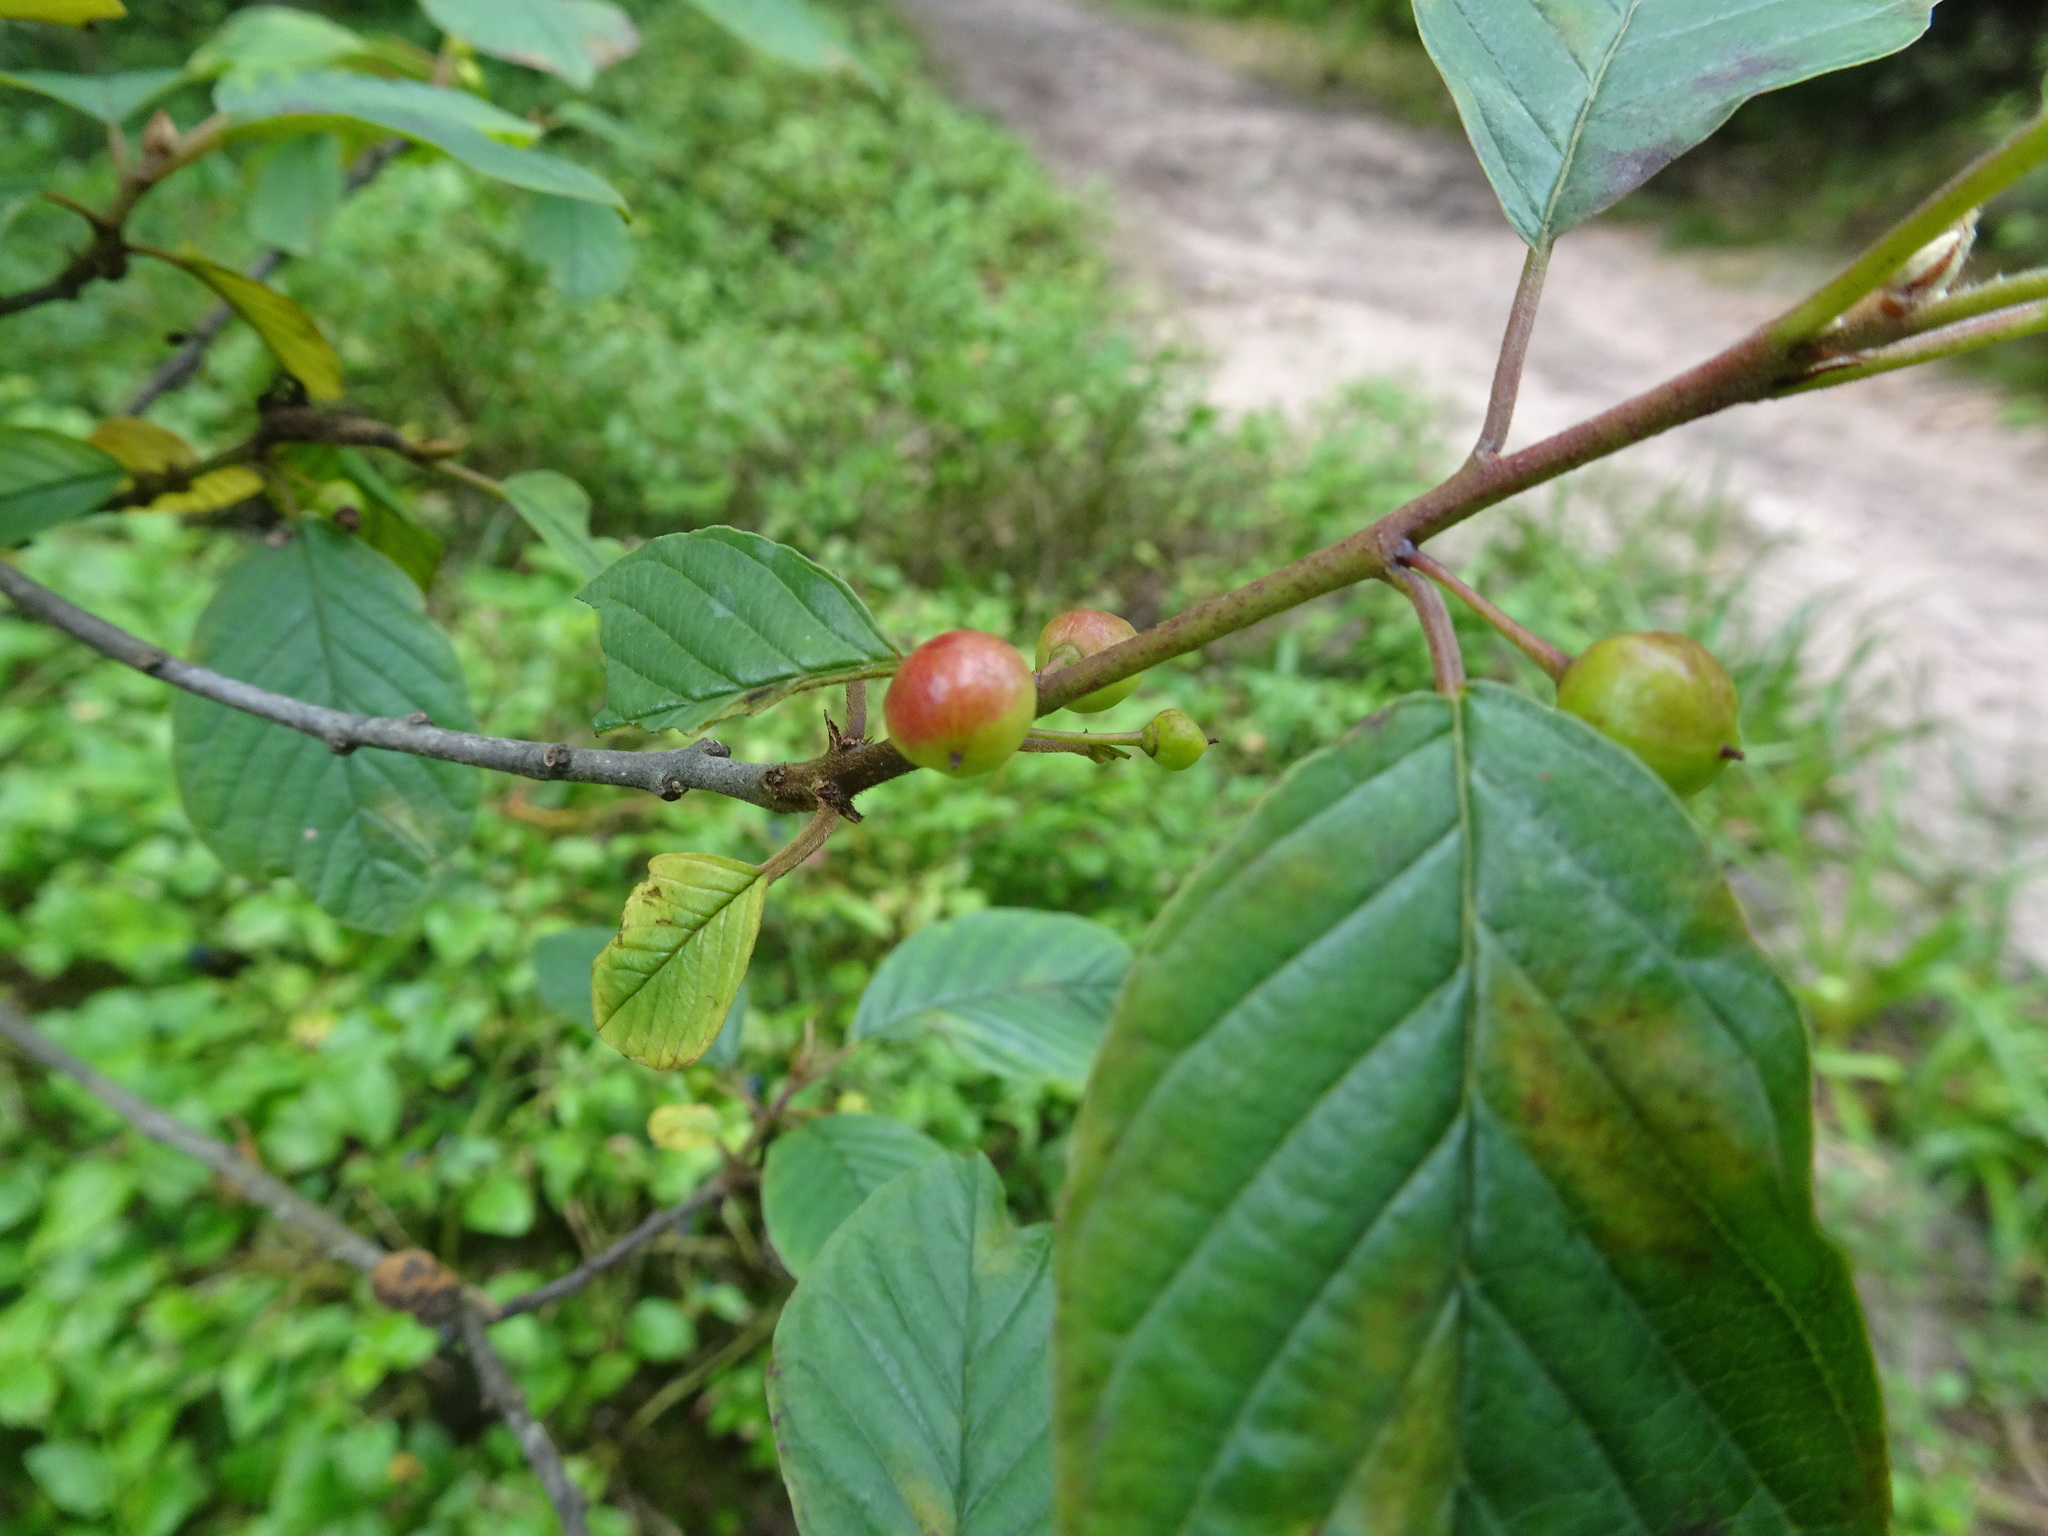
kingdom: Plantae
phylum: Tracheophyta
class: Magnoliopsida
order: Rosales
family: Rhamnaceae
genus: Frangula
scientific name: Frangula alnus
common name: Alder buckthorn
